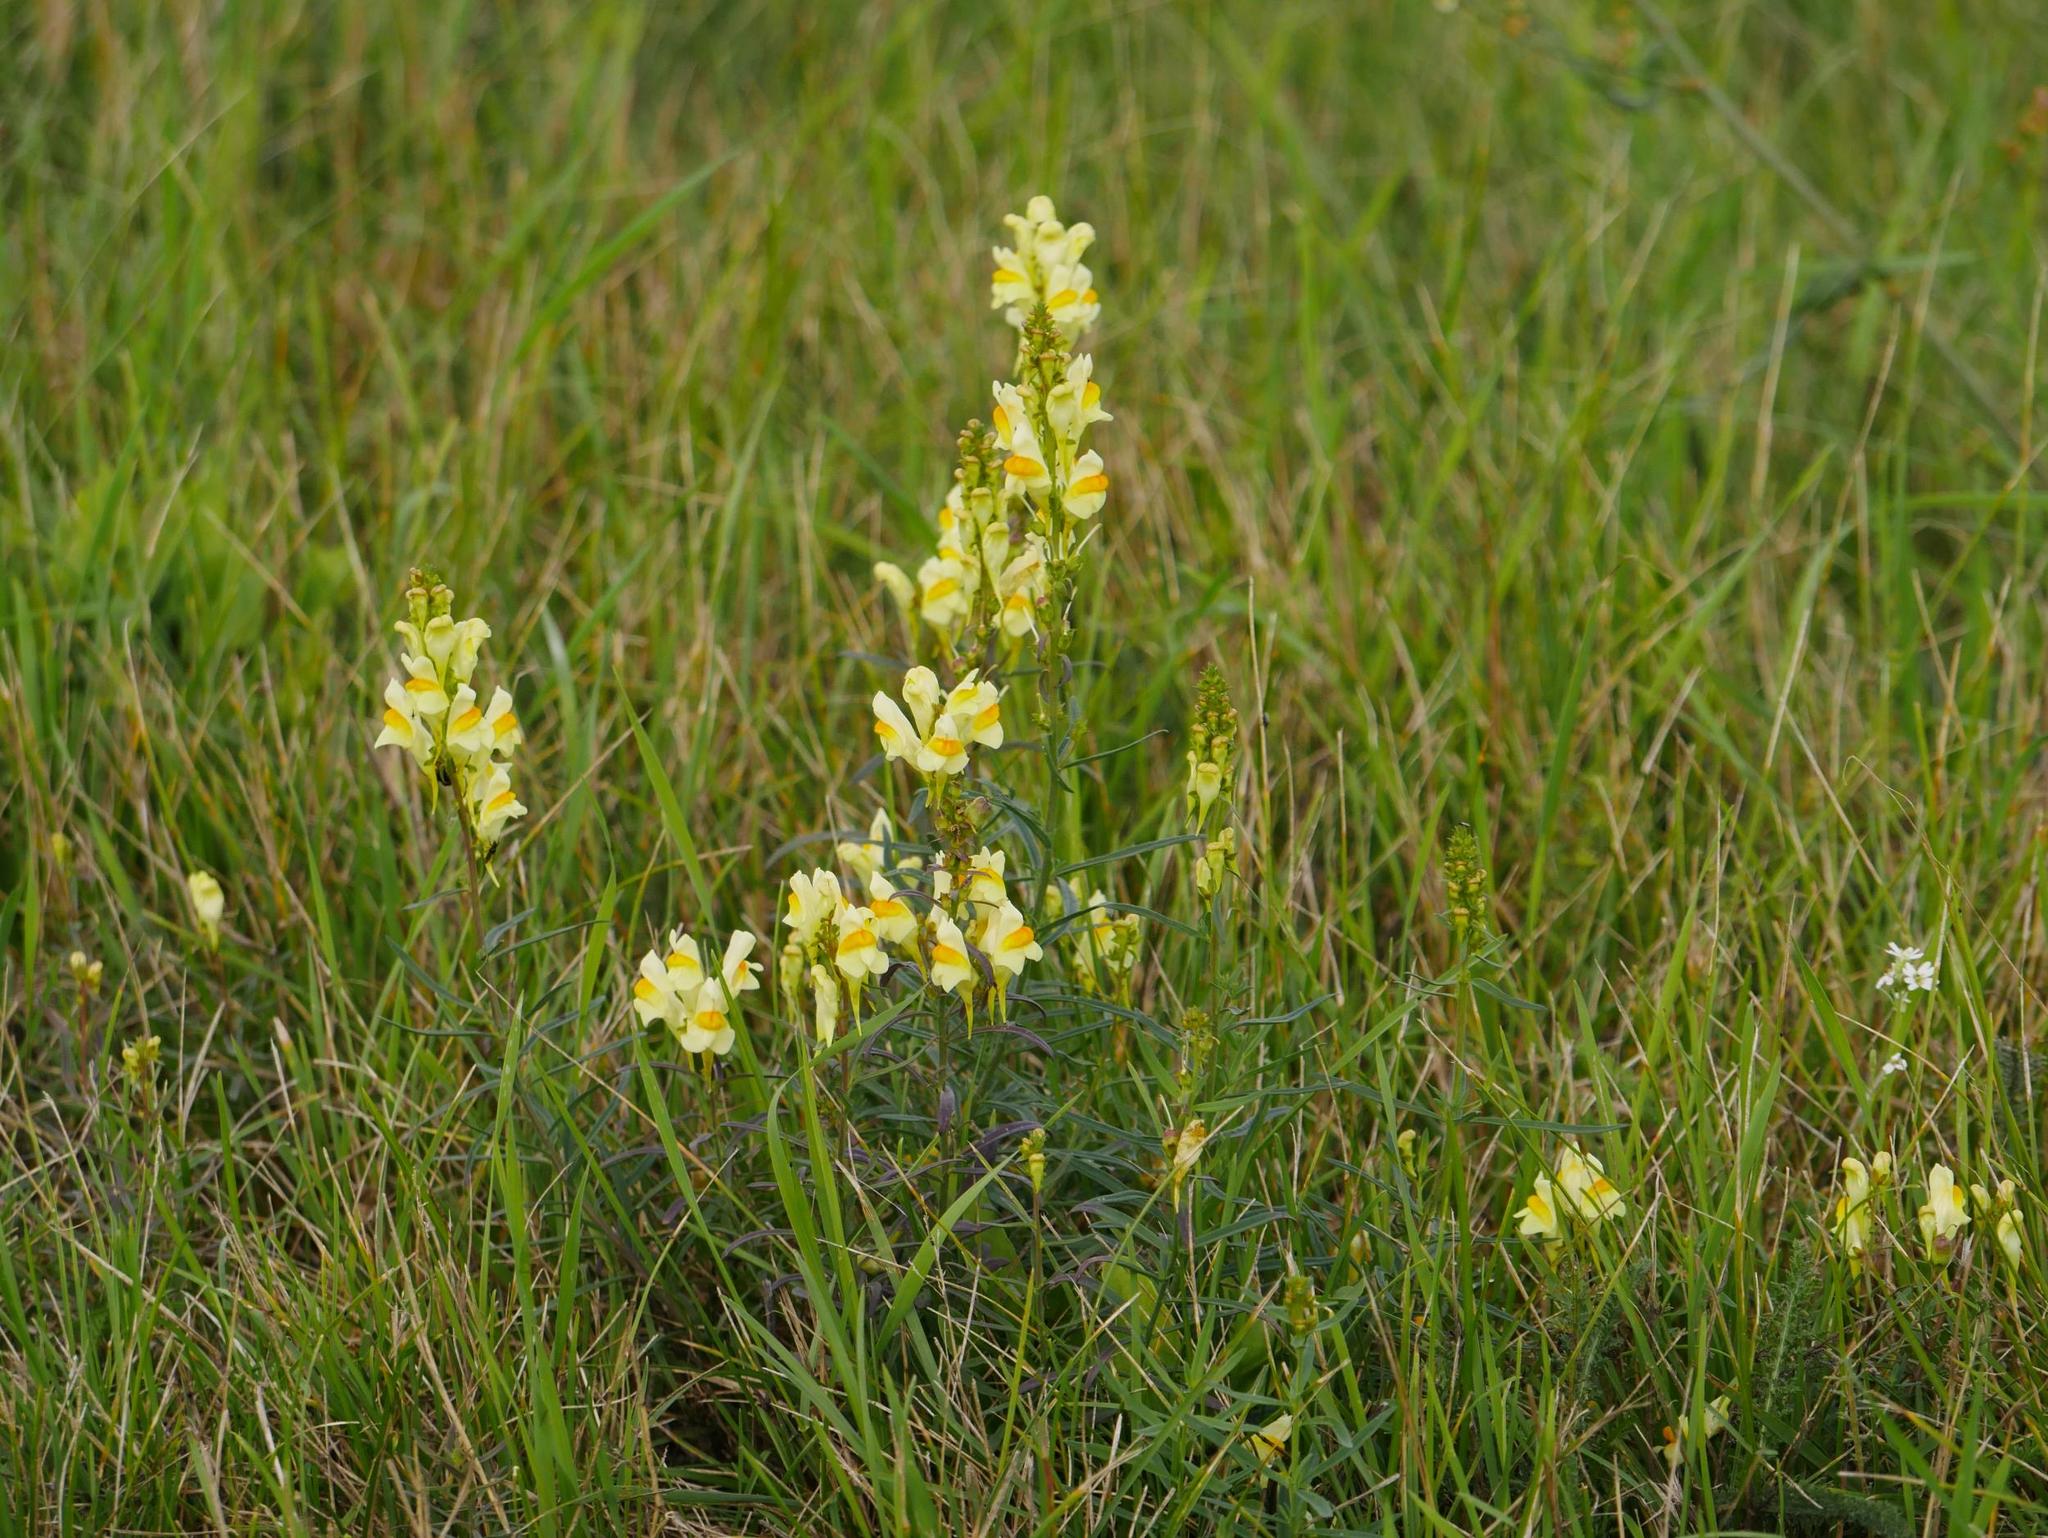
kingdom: Plantae
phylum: Tracheophyta
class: Magnoliopsida
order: Lamiales
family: Plantaginaceae
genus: Linaria
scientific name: Linaria vulgaris
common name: Butter and eggs
